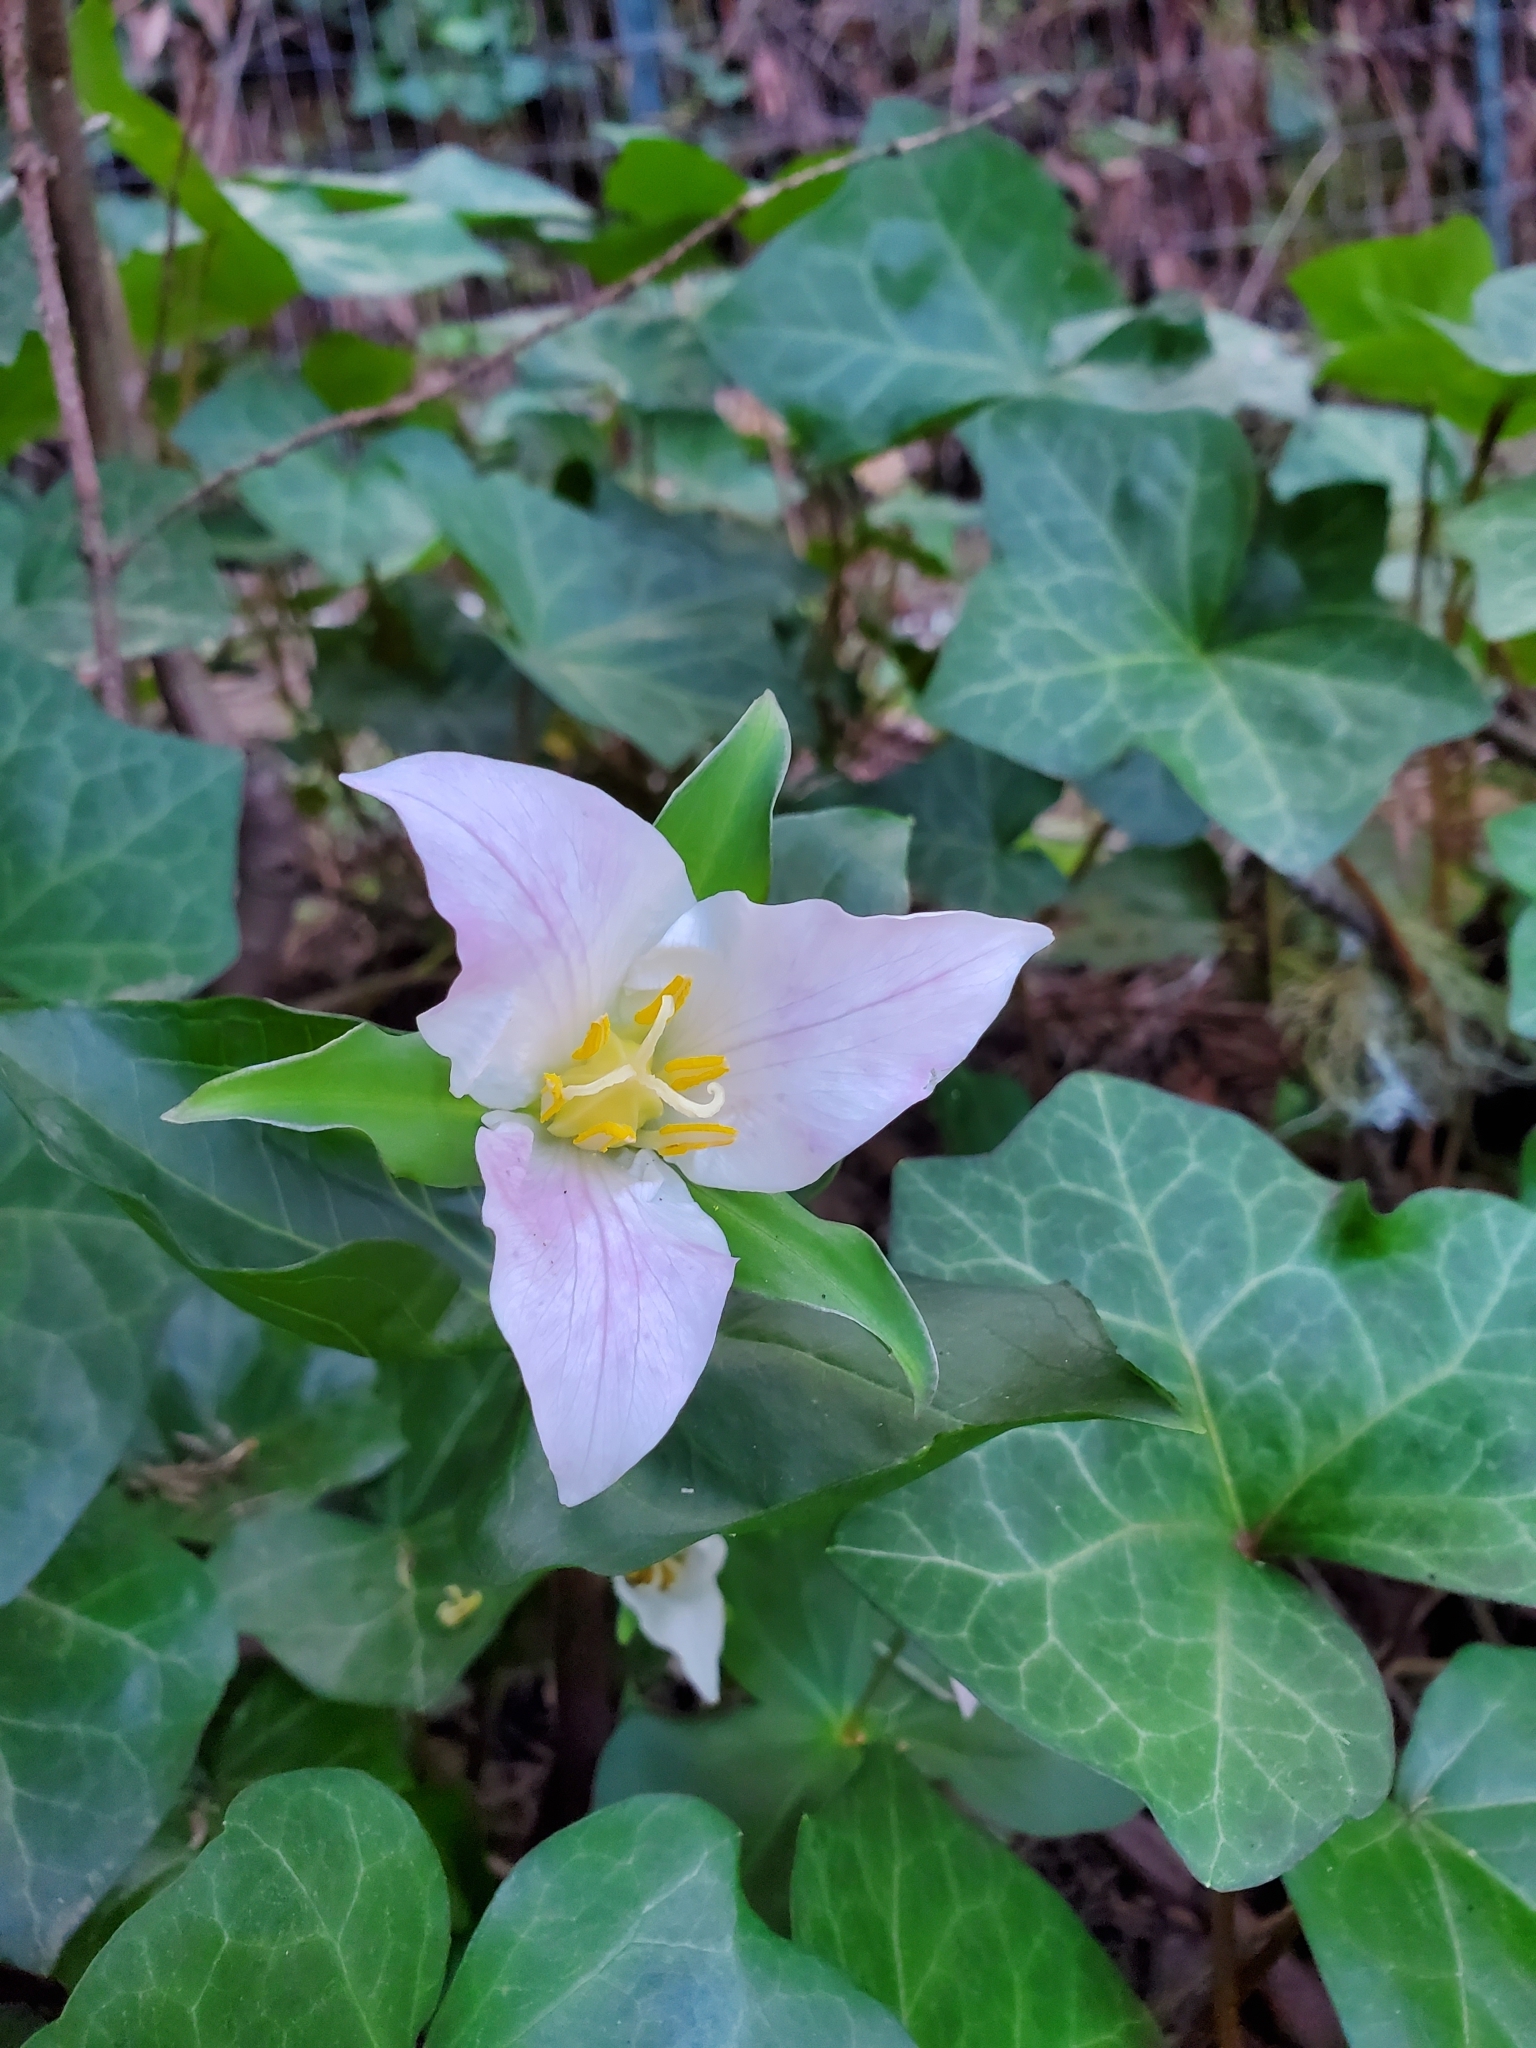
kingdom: Plantae
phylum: Tracheophyta
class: Liliopsida
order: Liliales
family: Melanthiaceae
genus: Trillium
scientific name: Trillium ovatum
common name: Pacific trillium
